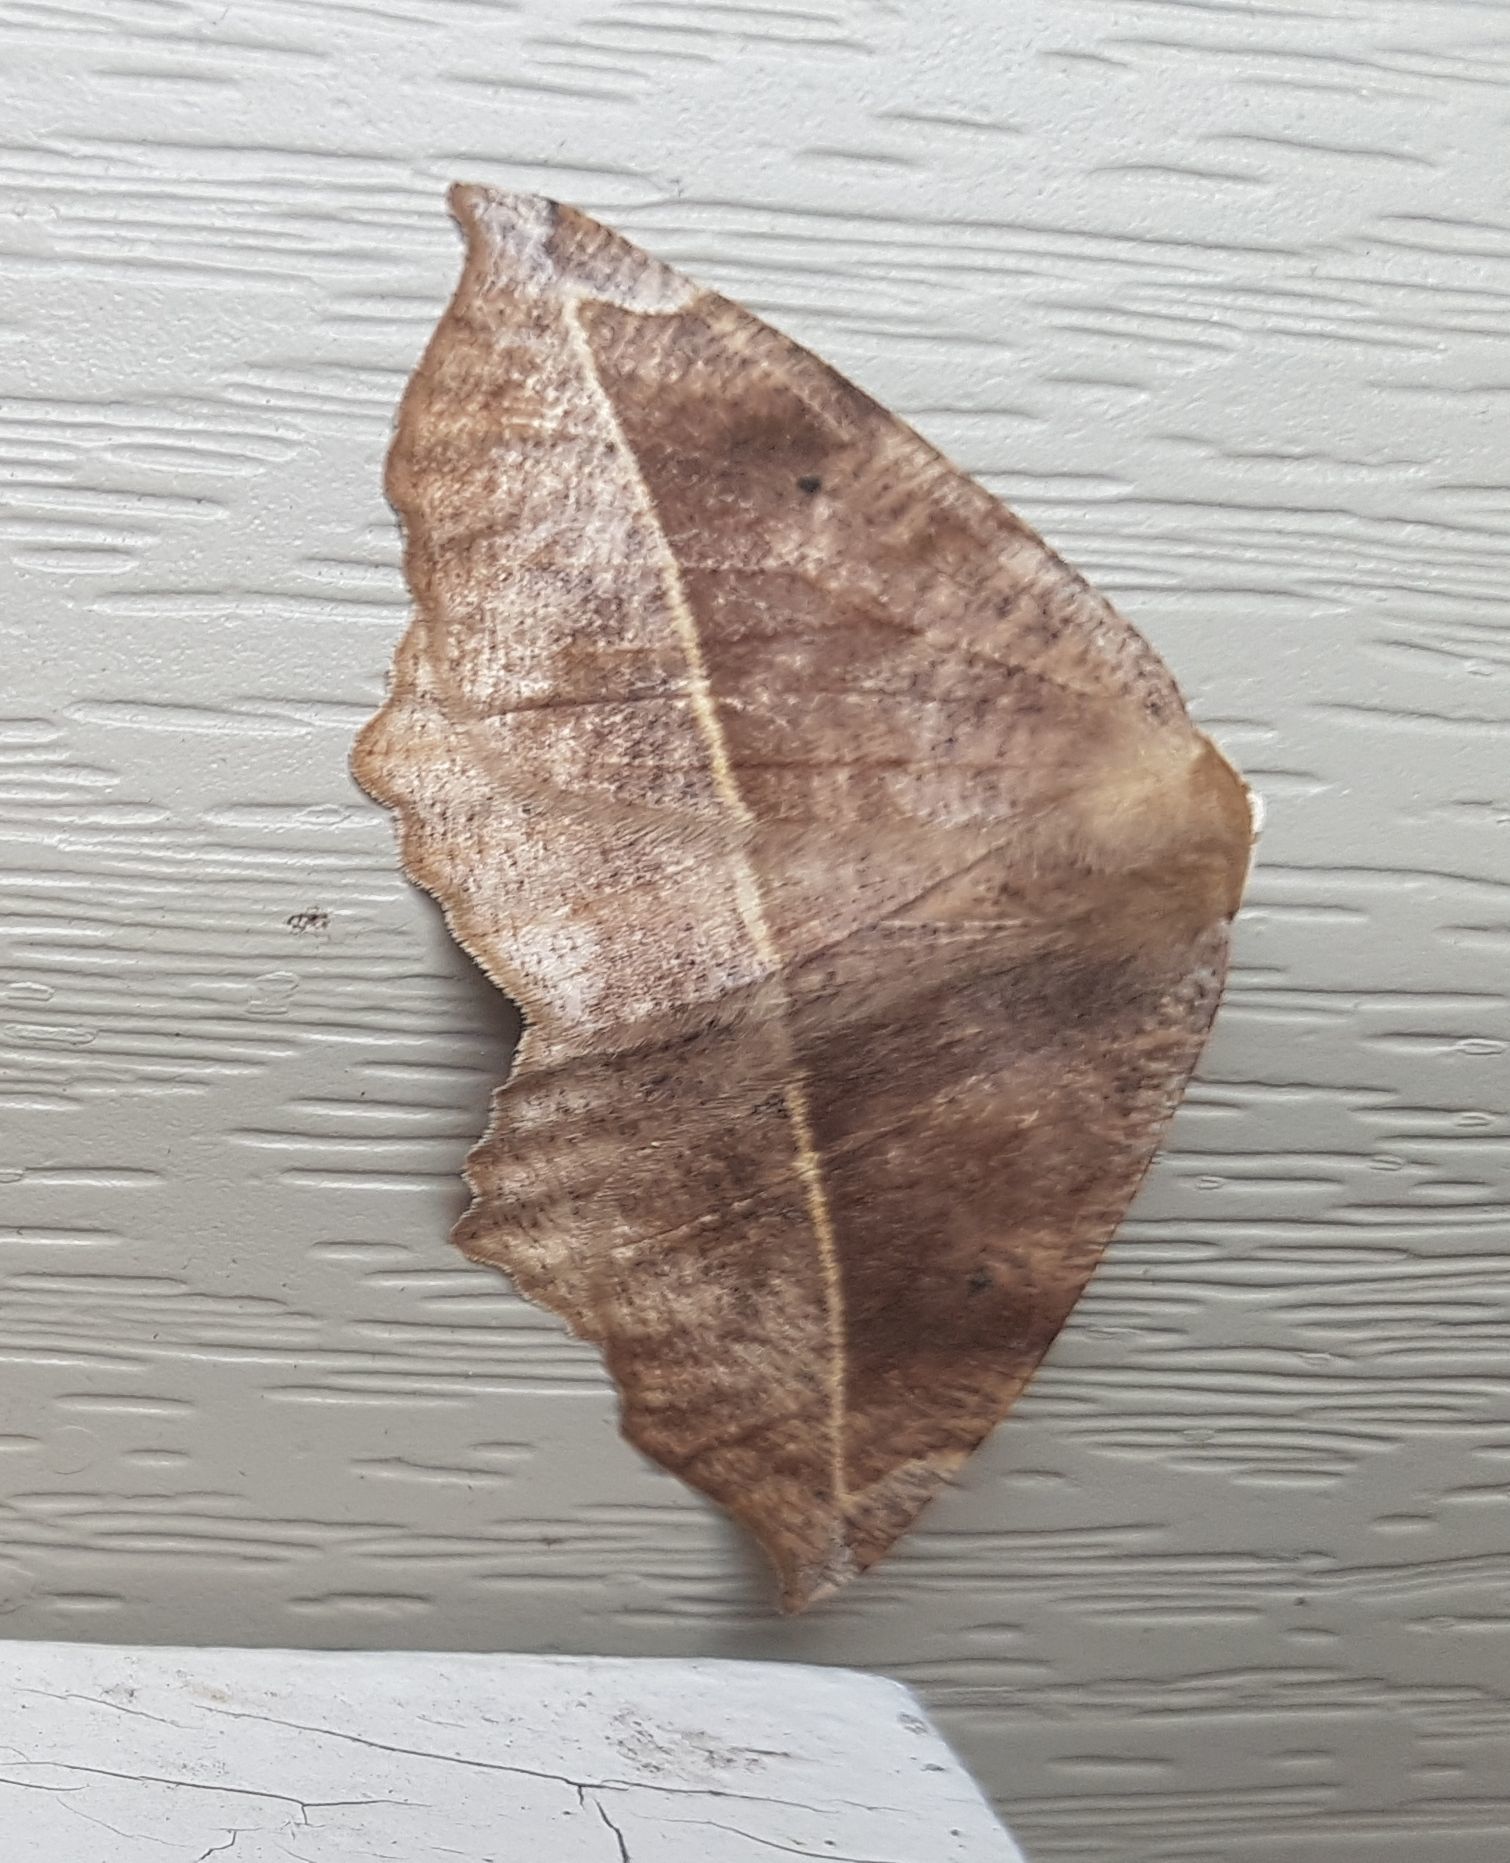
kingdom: Animalia
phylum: Arthropoda
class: Insecta
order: Lepidoptera
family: Geometridae
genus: Eutrapela
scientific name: Eutrapela clemataria
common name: Curved-toothed geometer
